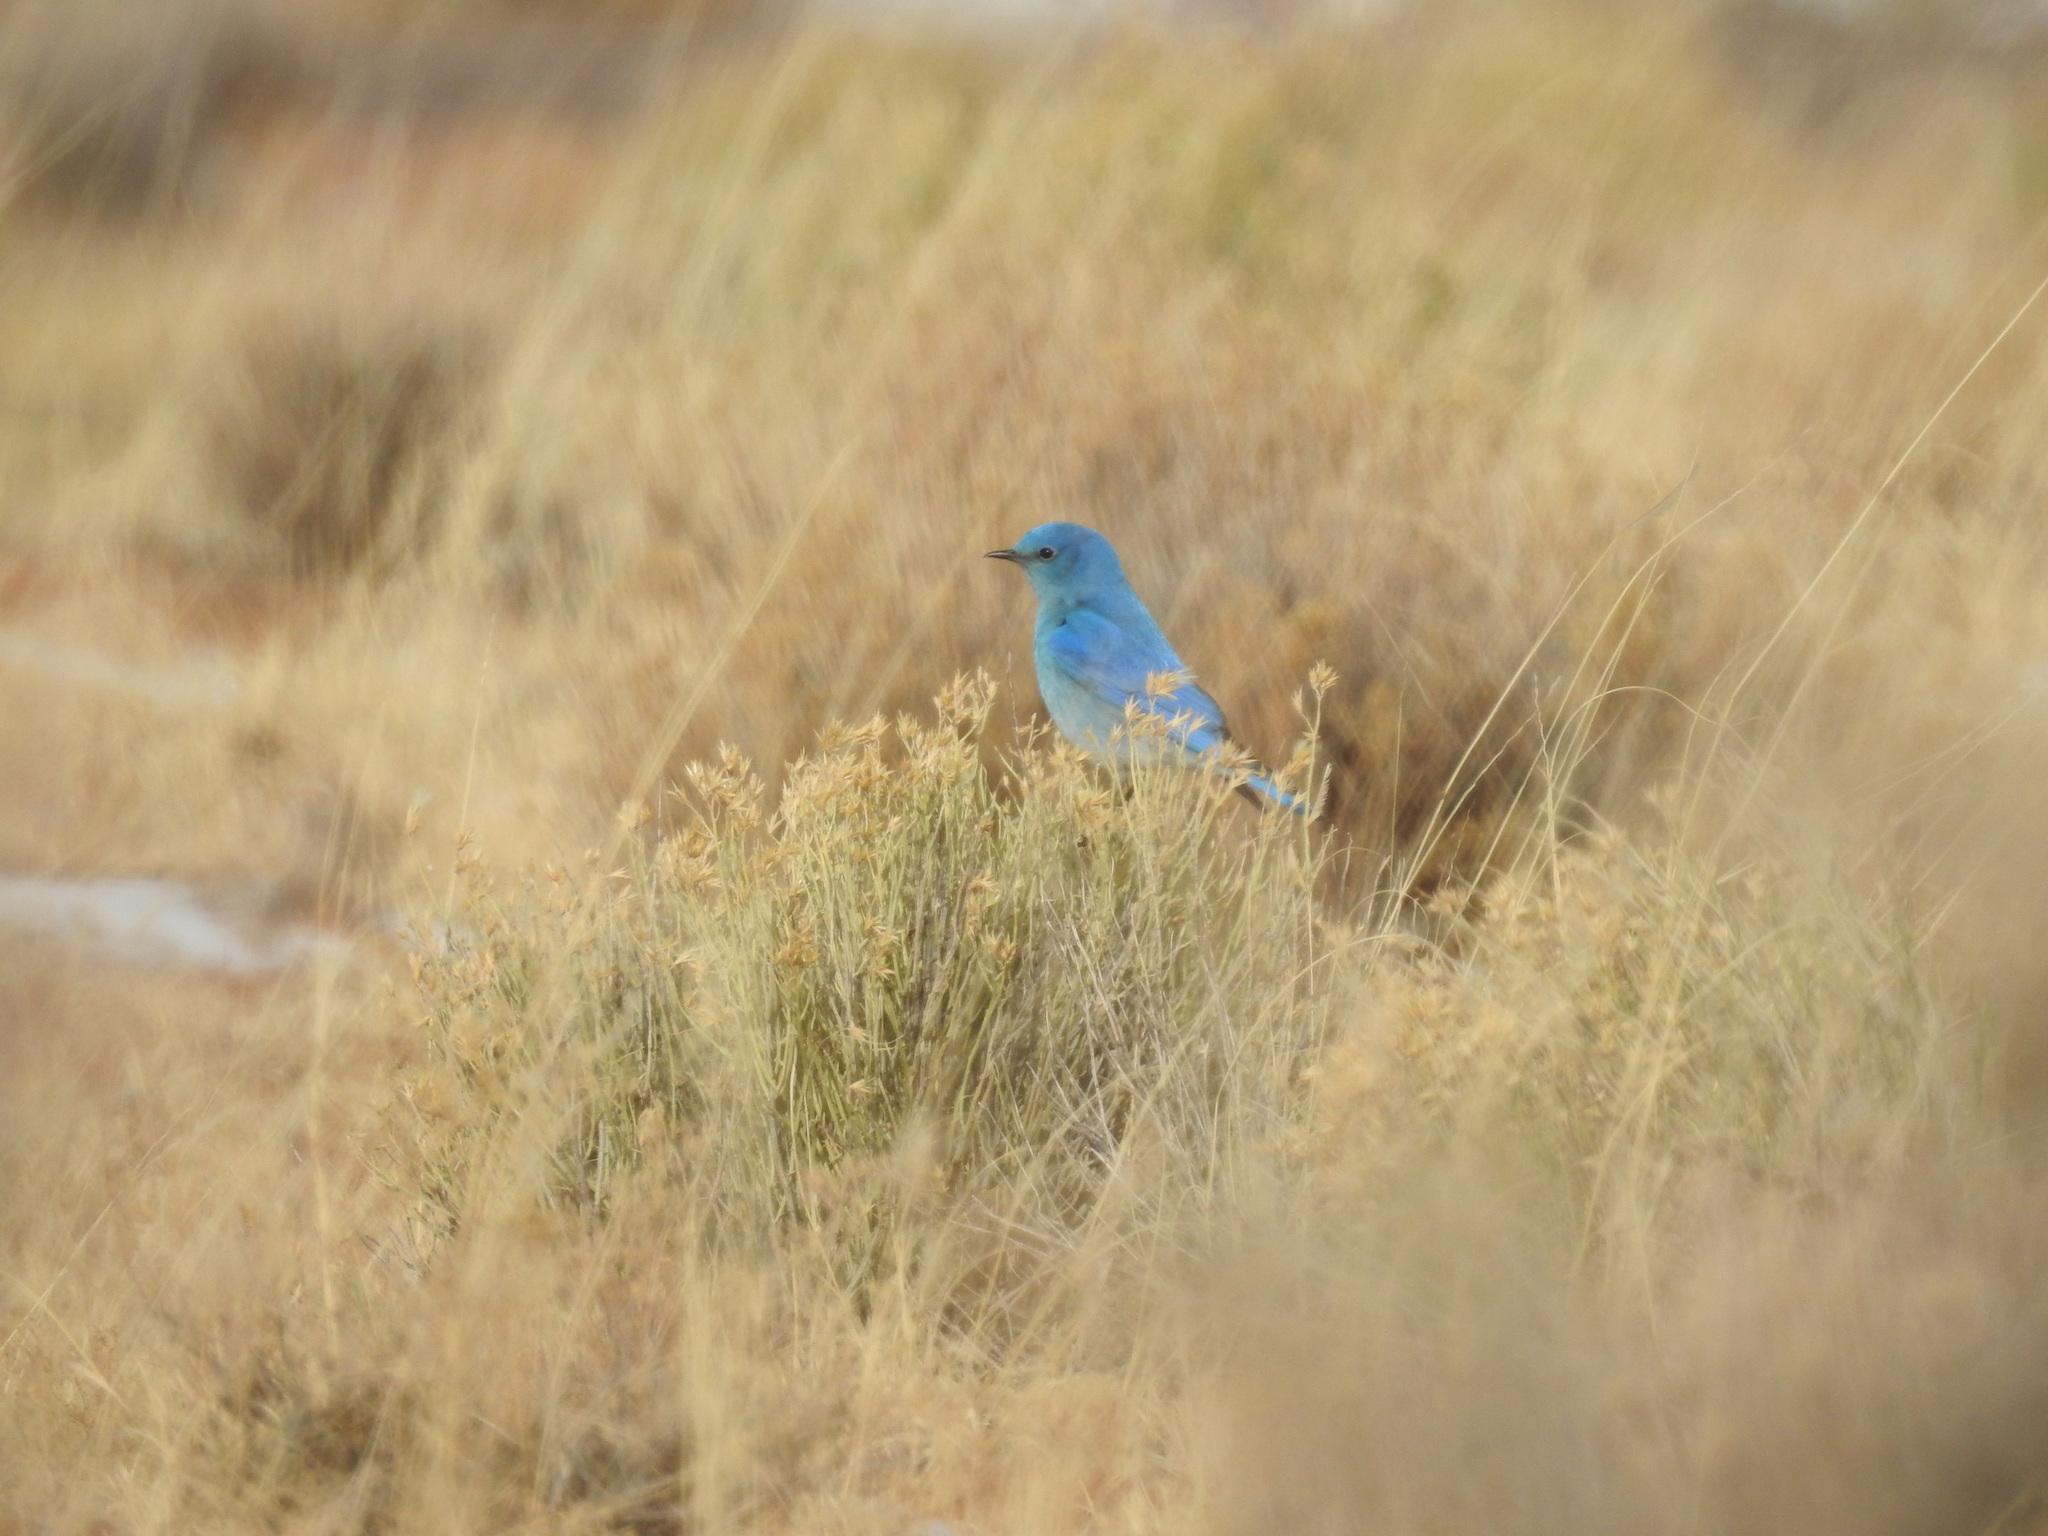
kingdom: Animalia
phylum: Chordata
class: Aves
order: Passeriformes
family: Turdidae
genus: Sialia
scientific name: Sialia currucoides
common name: Mountain bluebird
